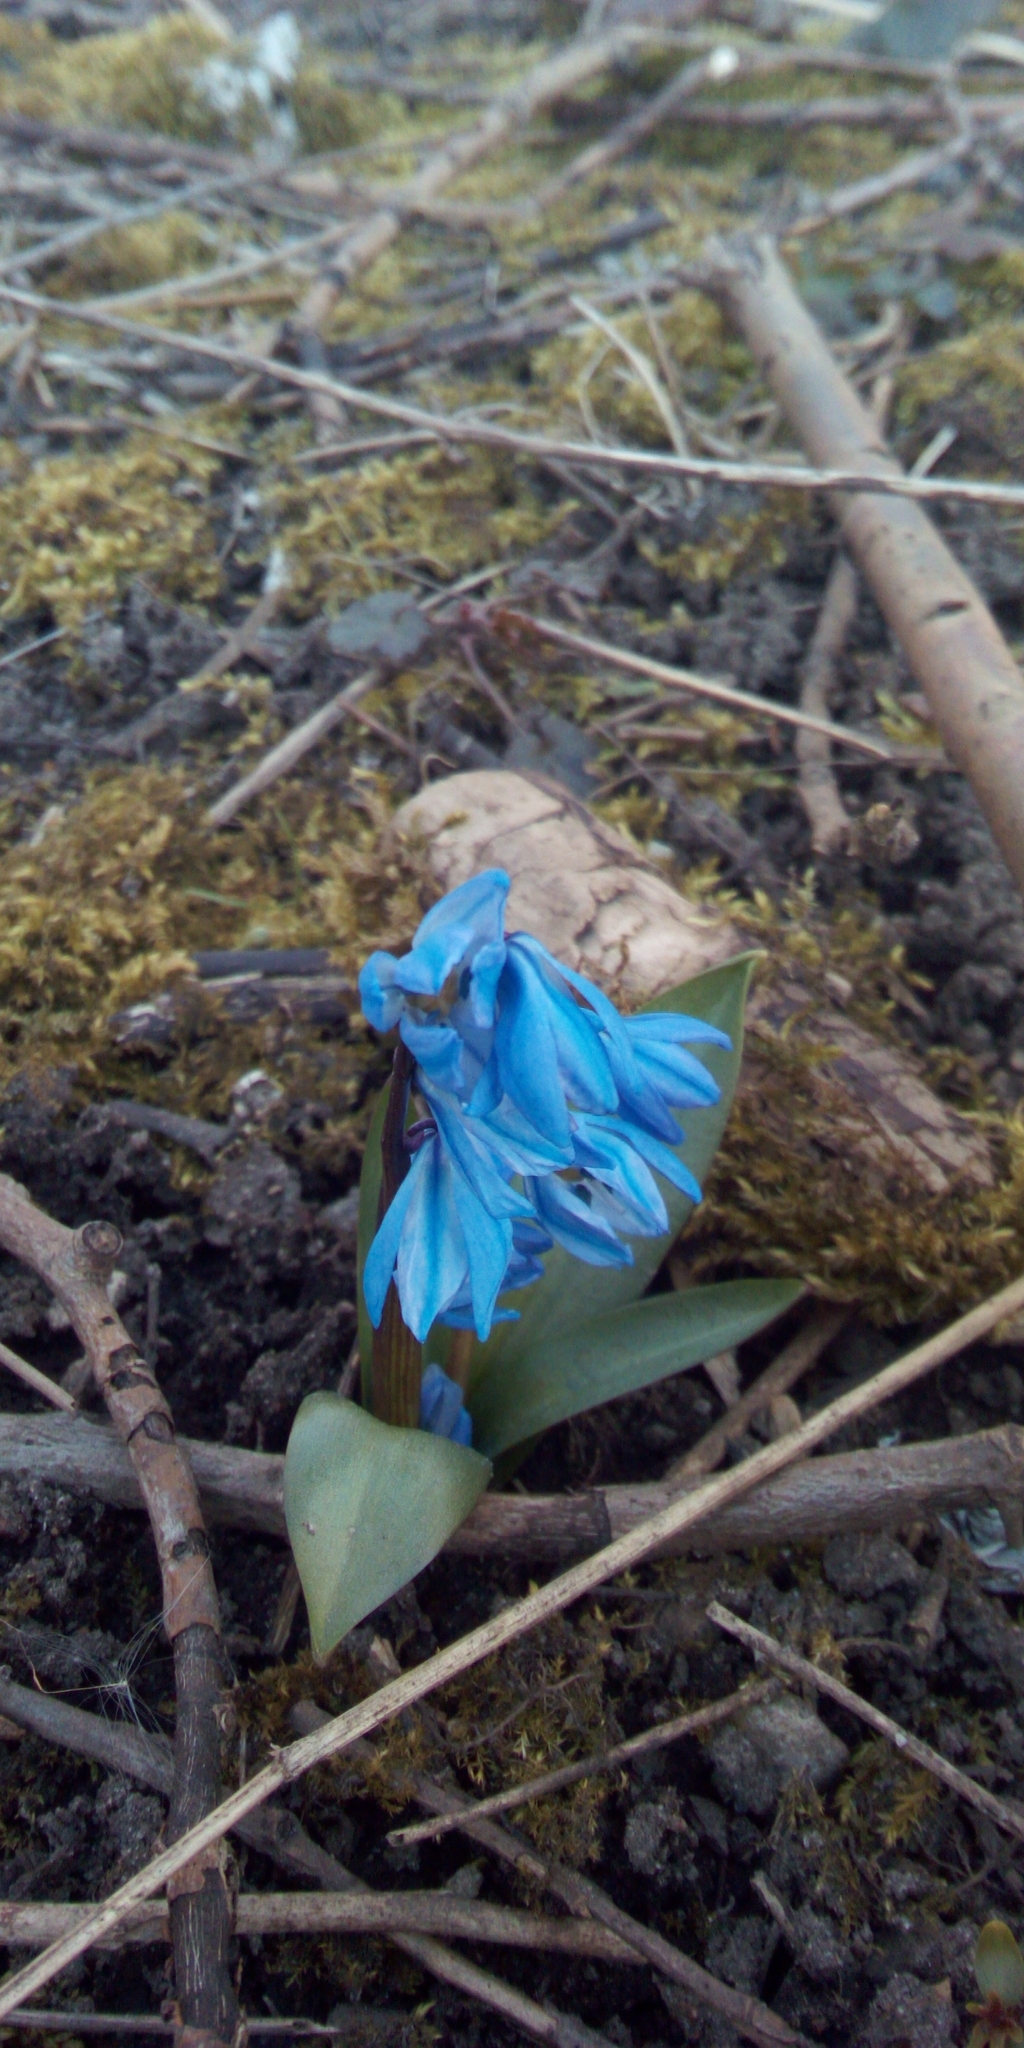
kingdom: Plantae
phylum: Tracheophyta
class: Liliopsida
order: Asparagales
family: Asparagaceae
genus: Scilla
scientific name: Scilla siberica
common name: Siberian squill
